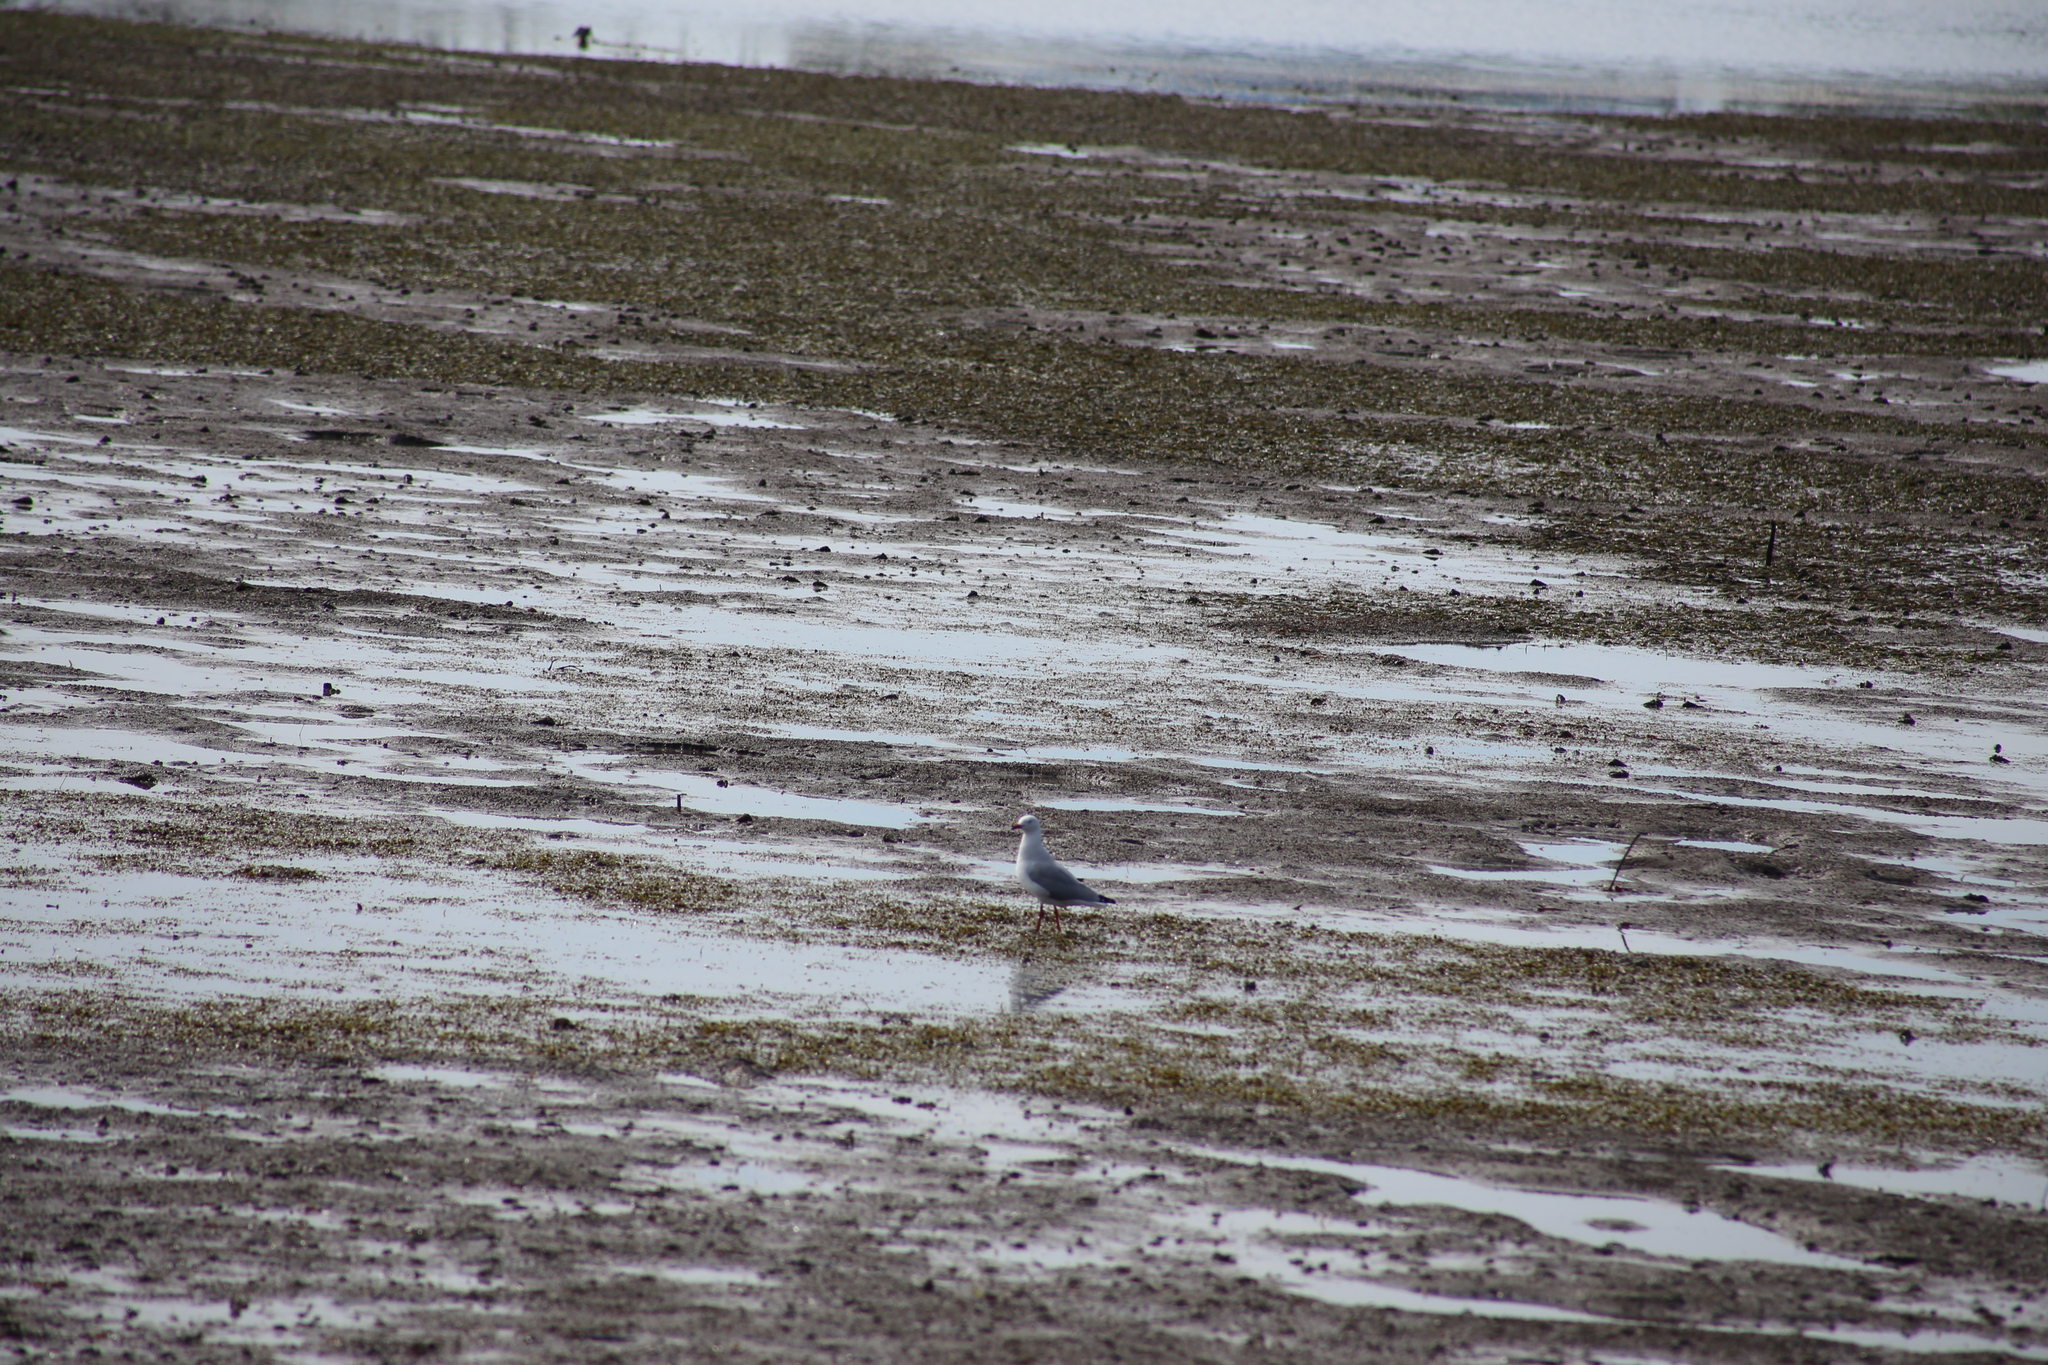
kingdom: Animalia
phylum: Chordata
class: Aves
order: Charadriiformes
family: Laridae
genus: Chroicocephalus
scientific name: Chroicocephalus novaehollandiae
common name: Silver gull
